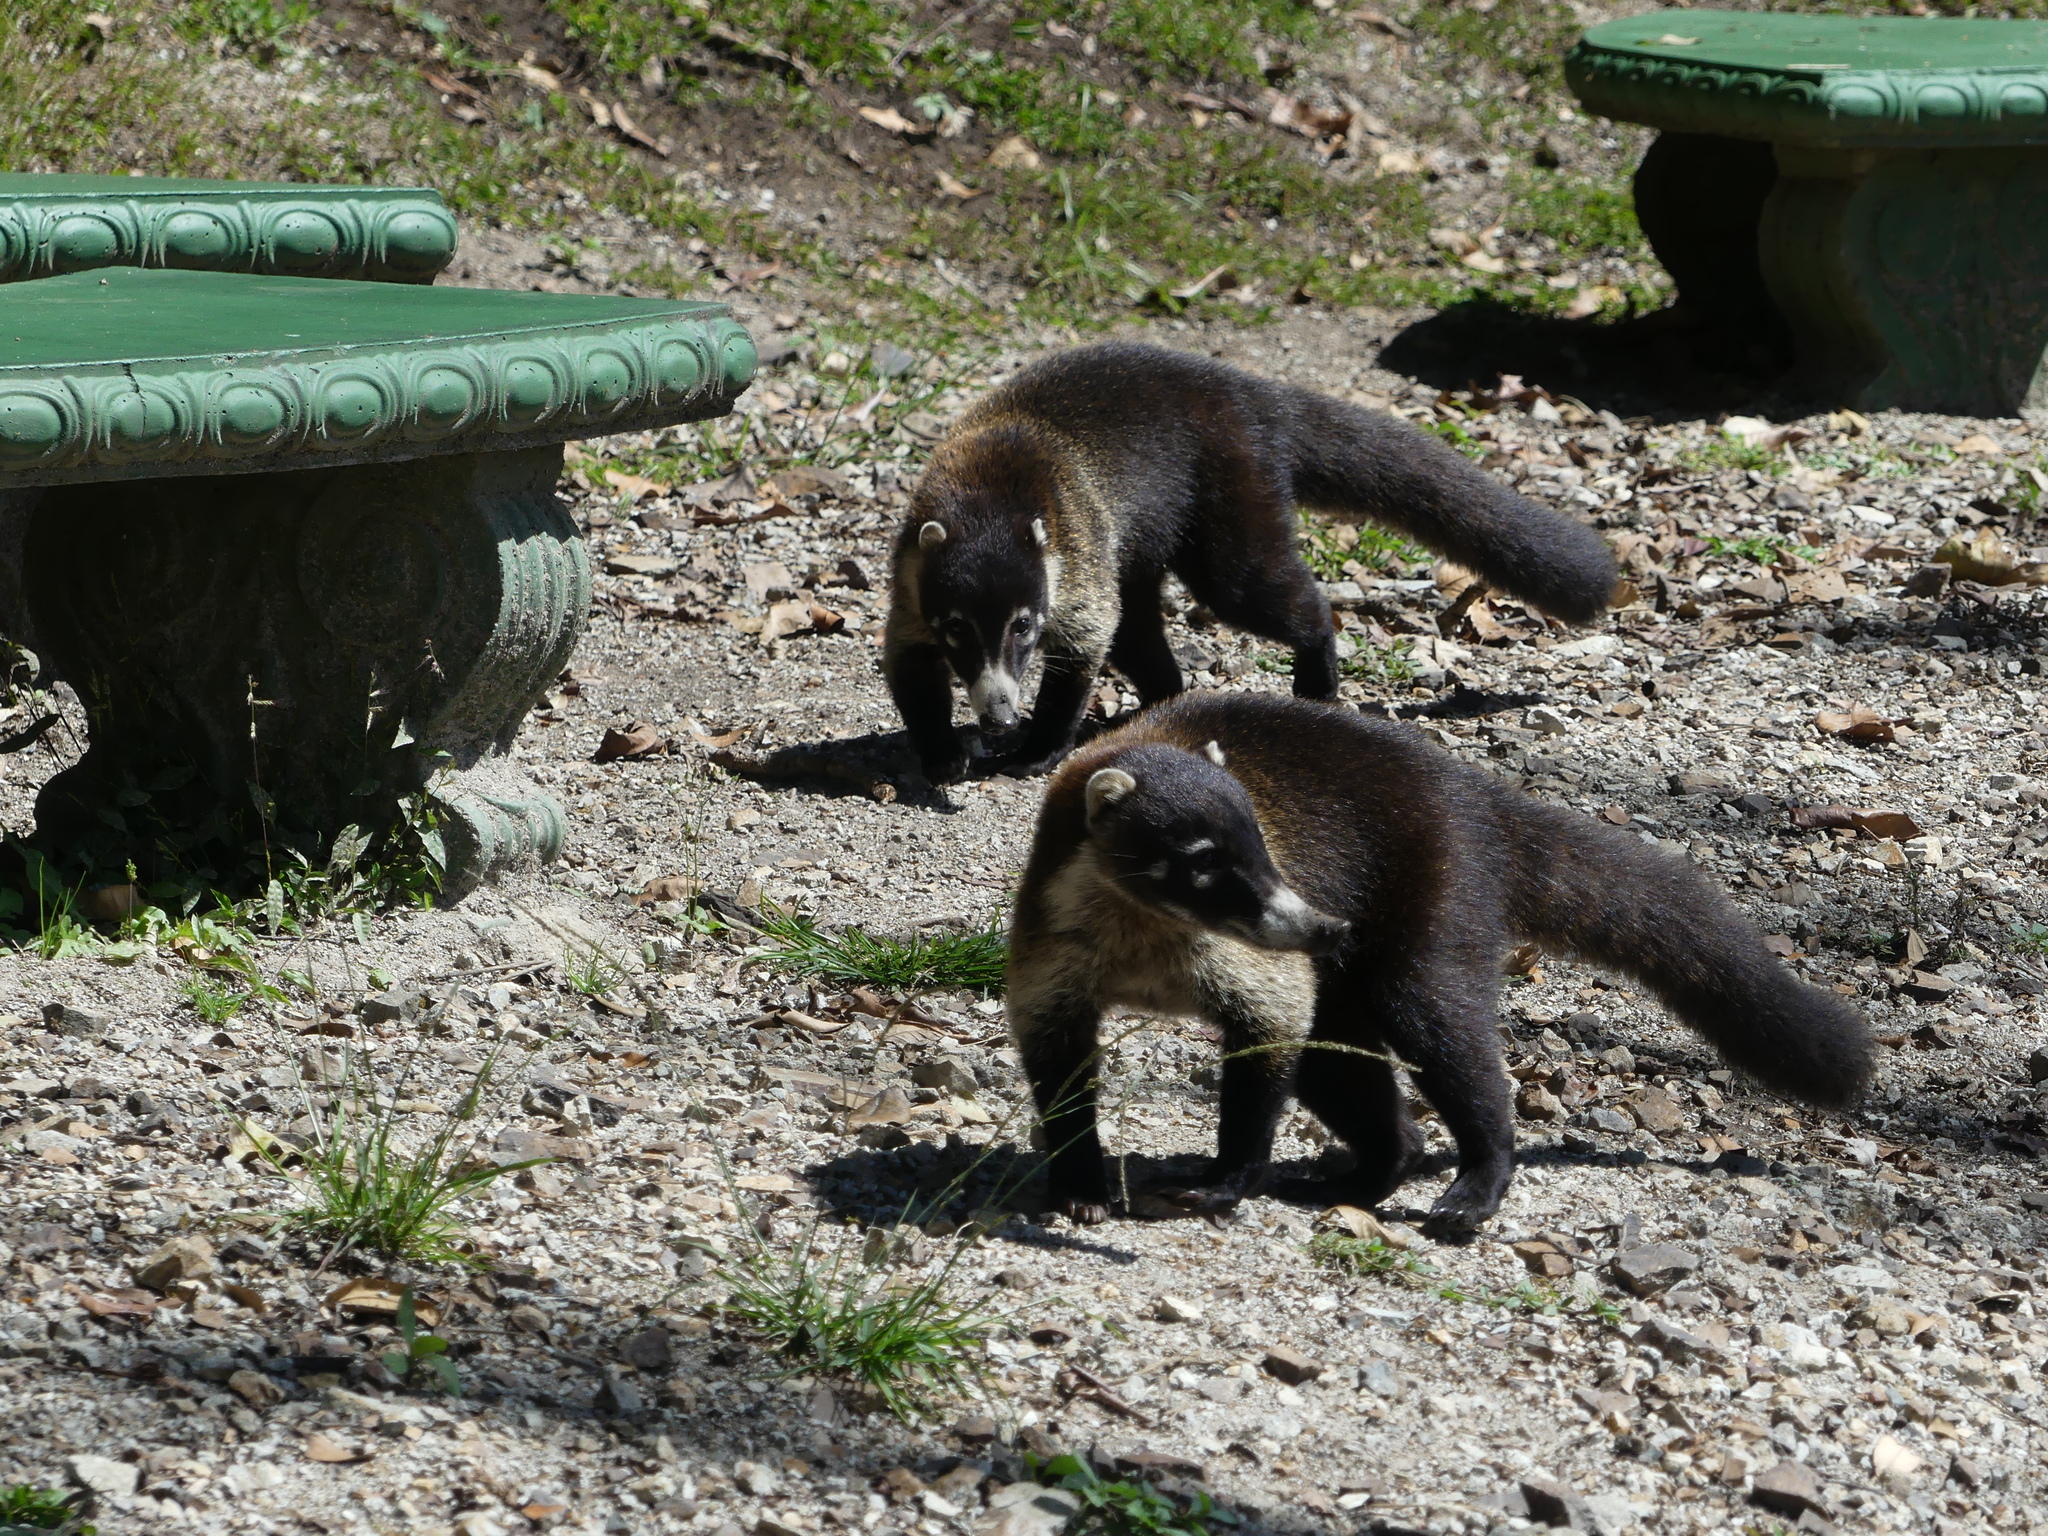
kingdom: Animalia
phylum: Chordata
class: Mammalia
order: Carnivora
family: Procyonidae
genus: Nasua
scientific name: Nasua narica
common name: White-nosed coati
